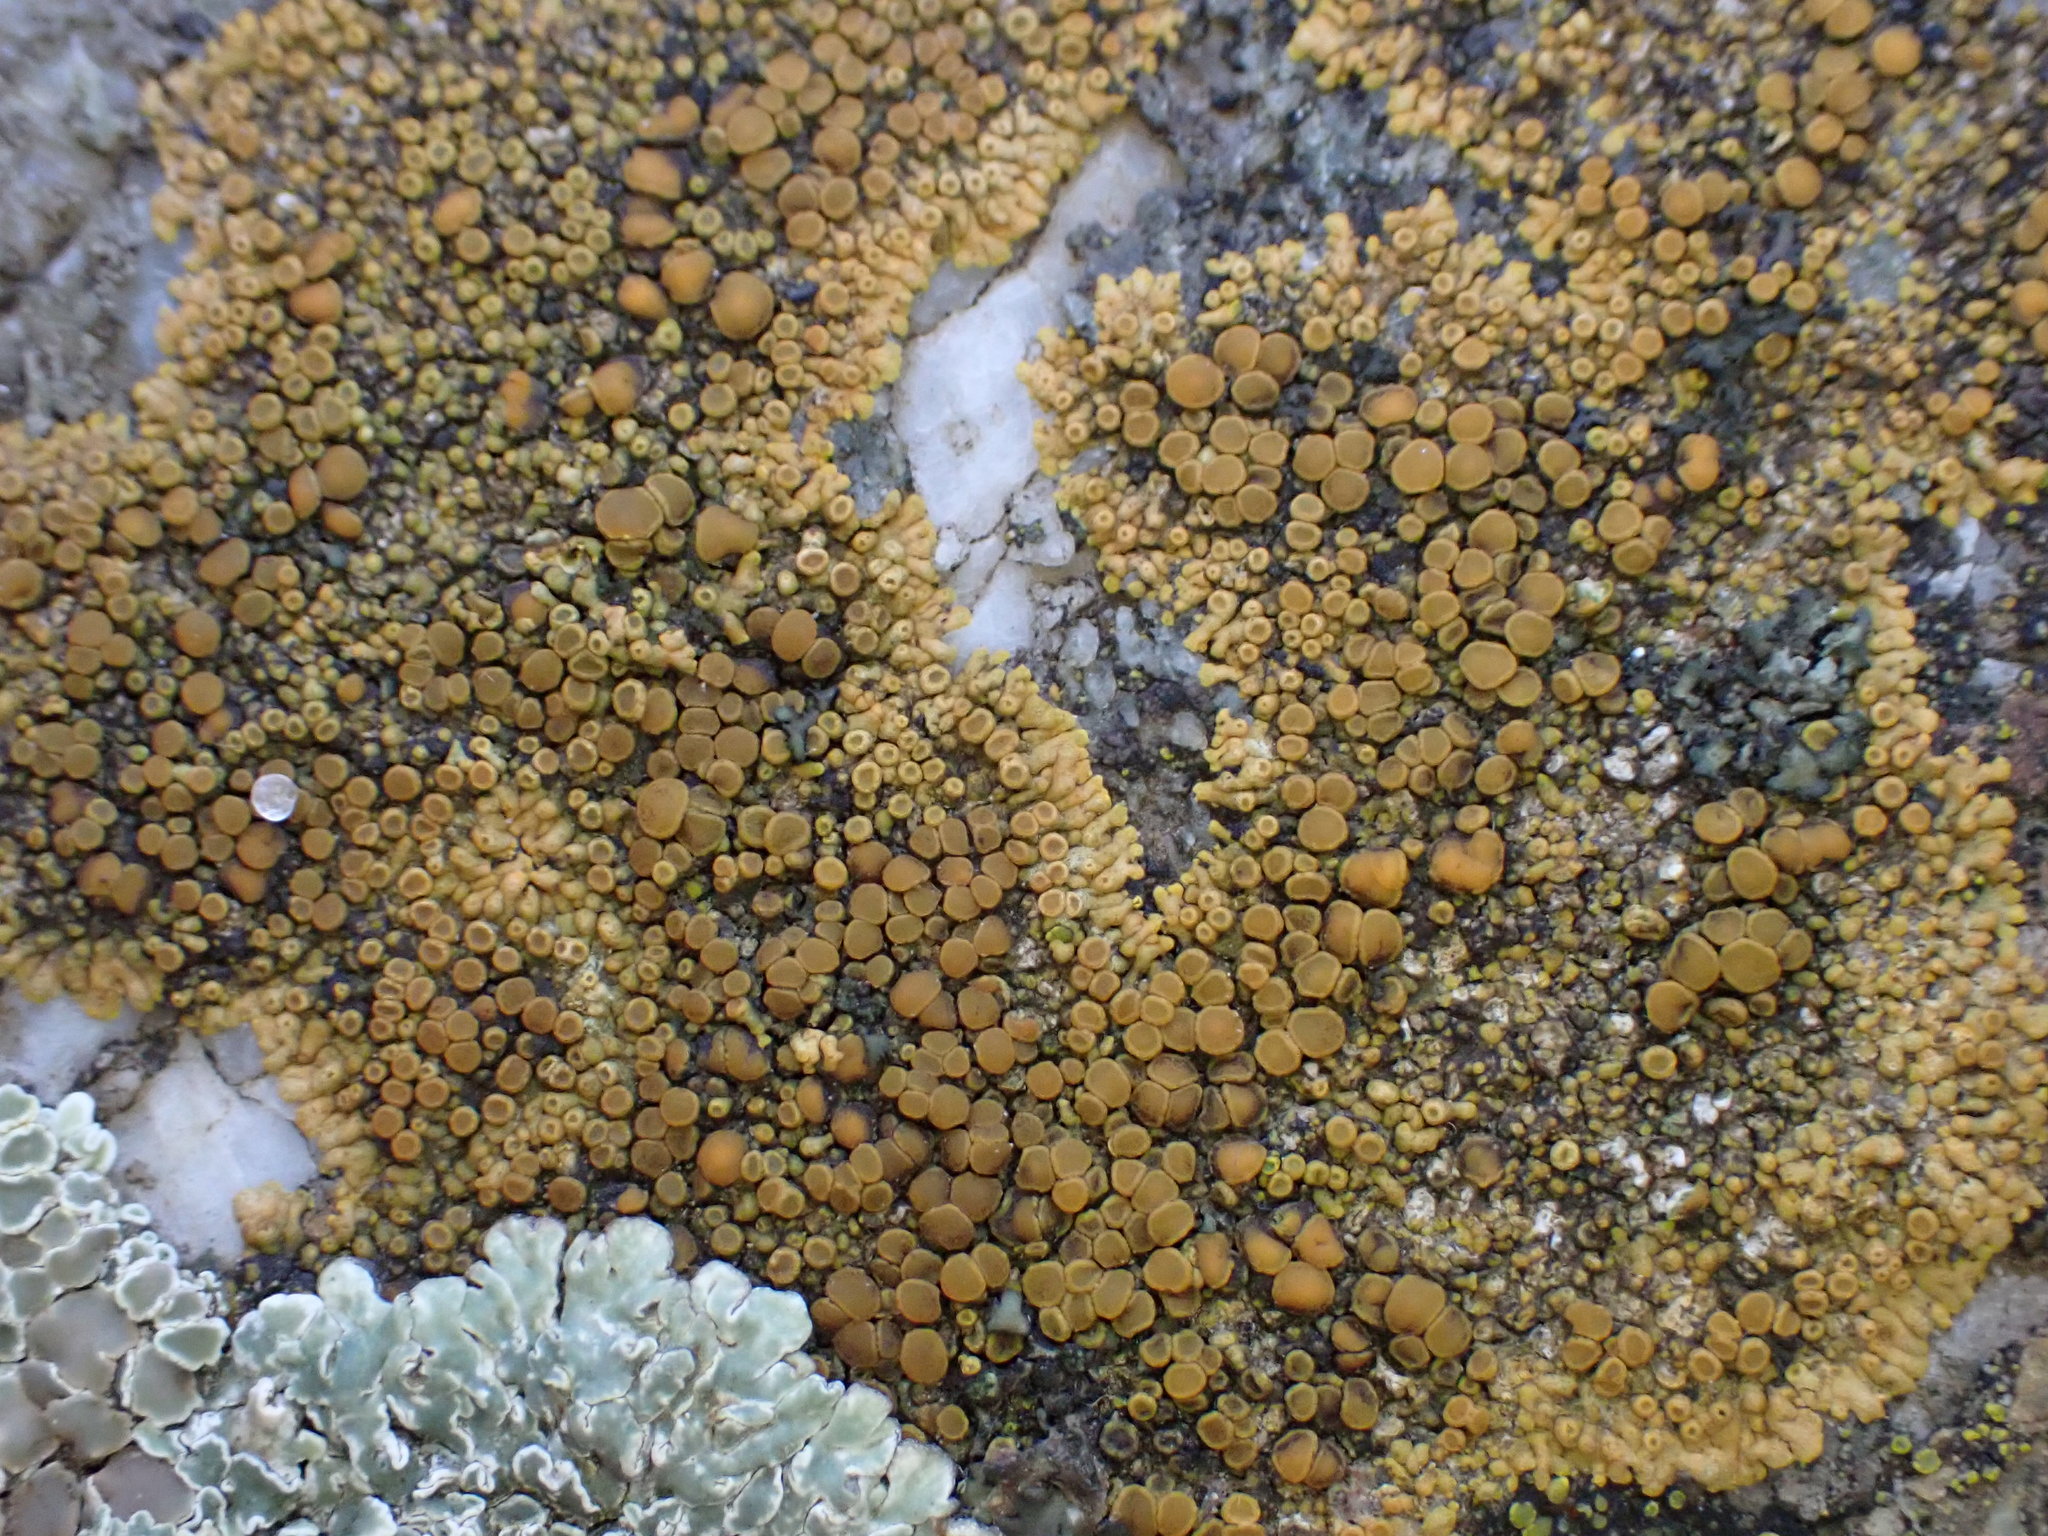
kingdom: Fungi
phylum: Ascomycota
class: Lecanoromycetes
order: Teloschistales
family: Teloschistaceae
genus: Calogaya
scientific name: Calogaya pusilla
